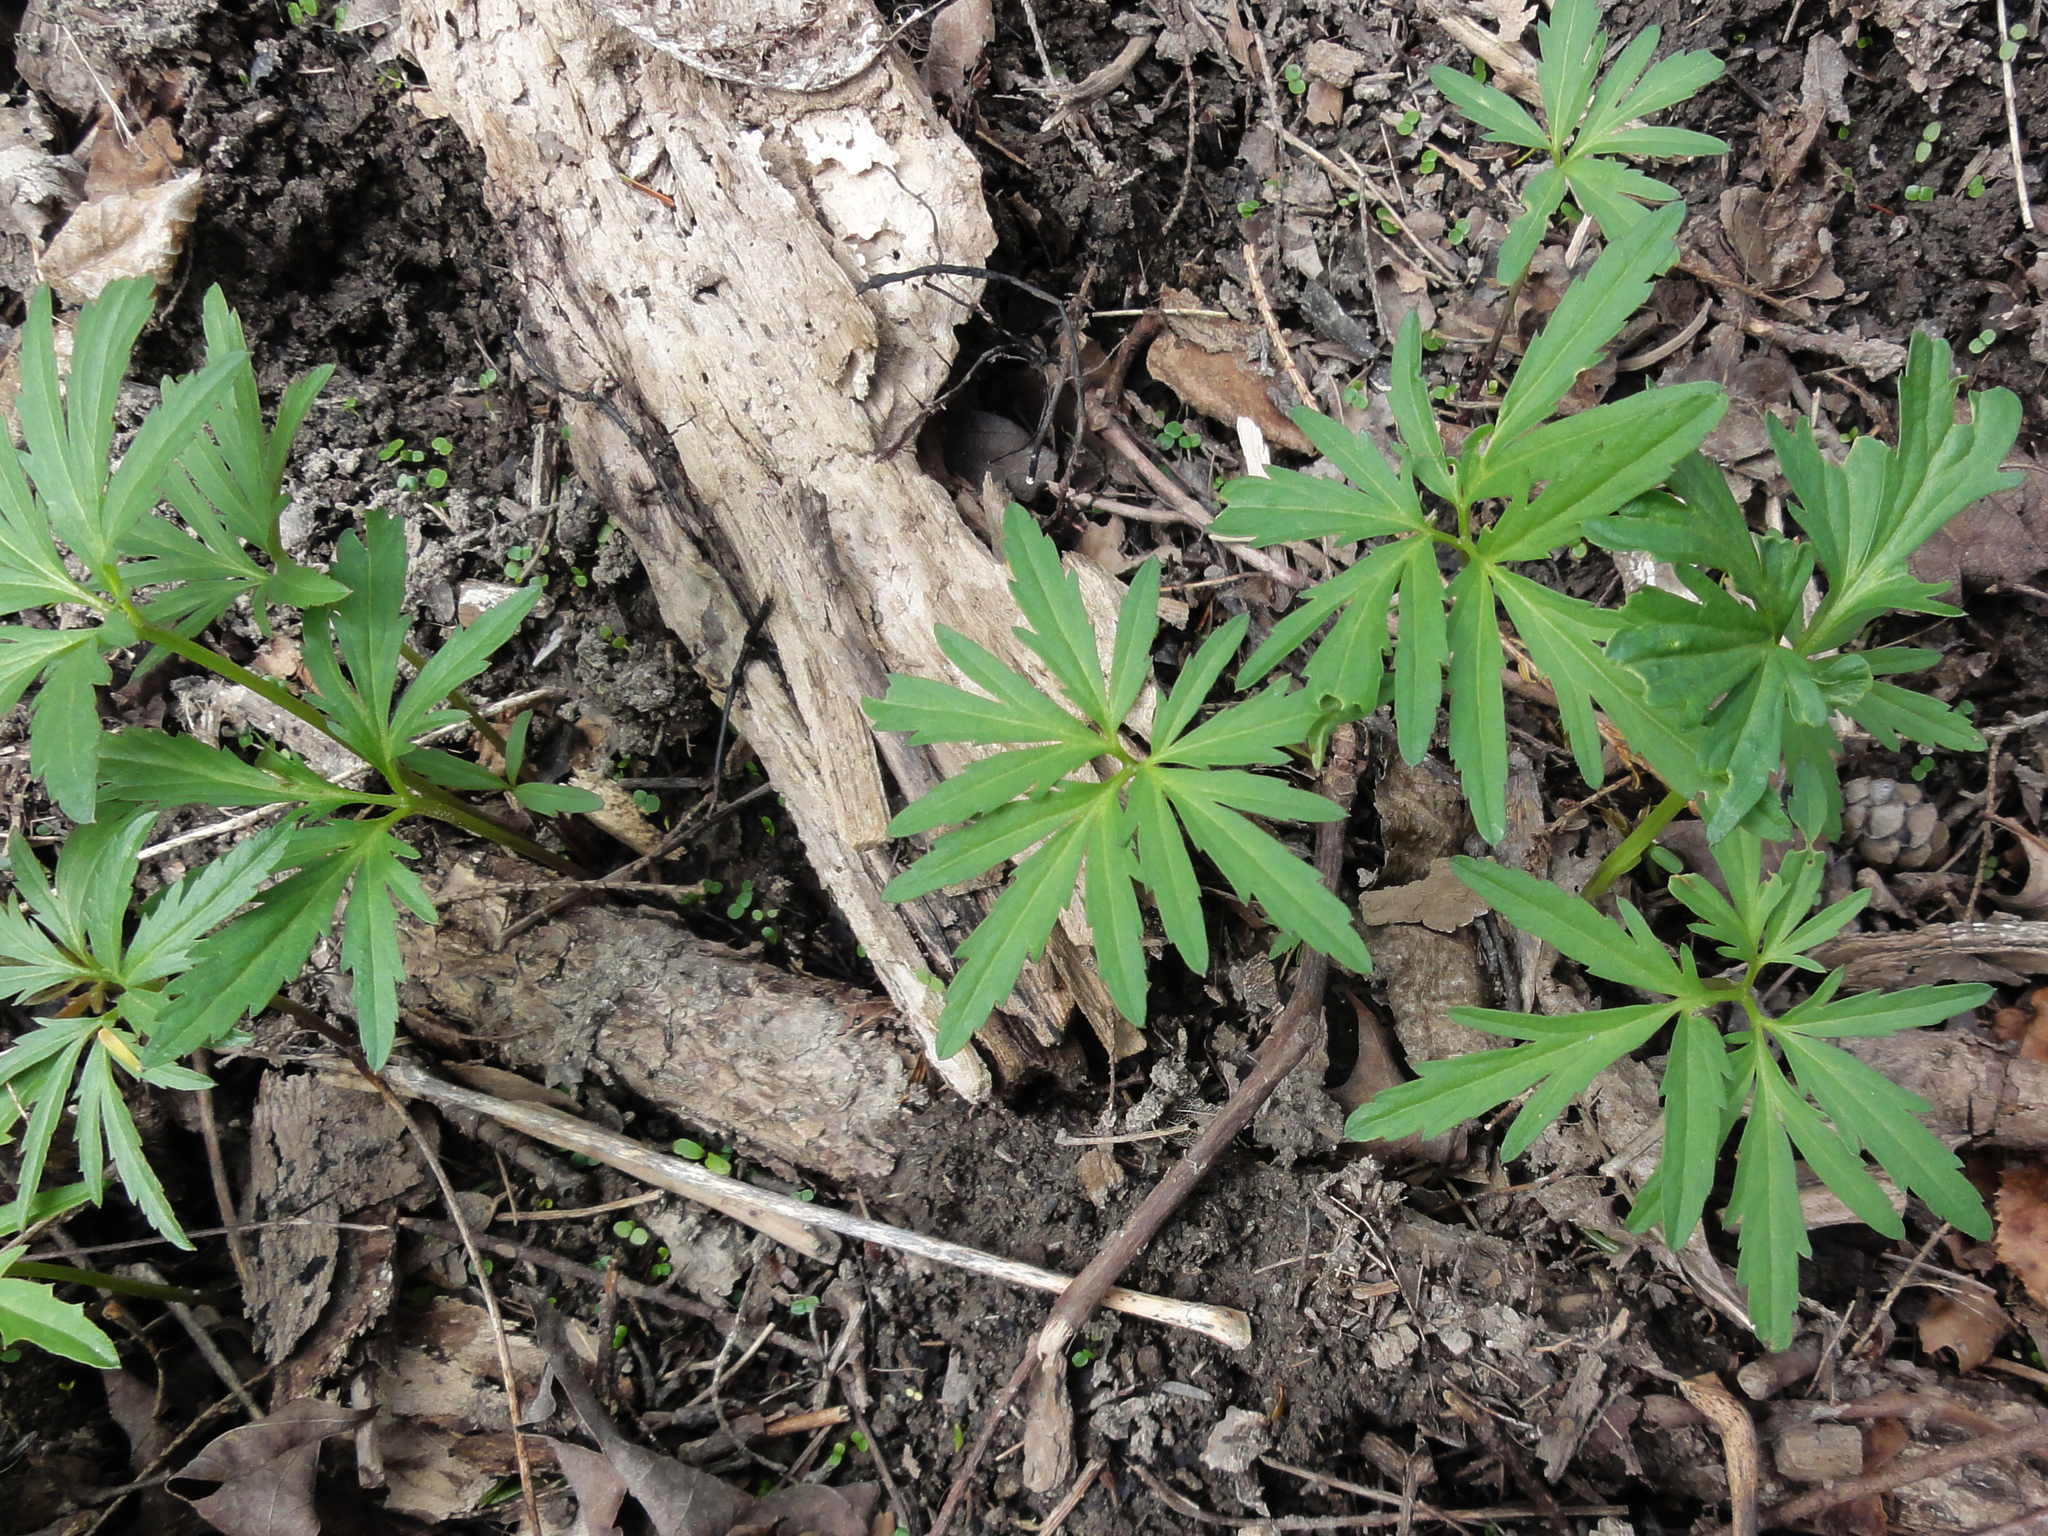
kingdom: Plantae
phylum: Tracheophyta
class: Magnoliopsida
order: Brassicales
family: Brassicaceae
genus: Cardamine
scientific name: Cardamine concatenata
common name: Cut-leaf toothcup
